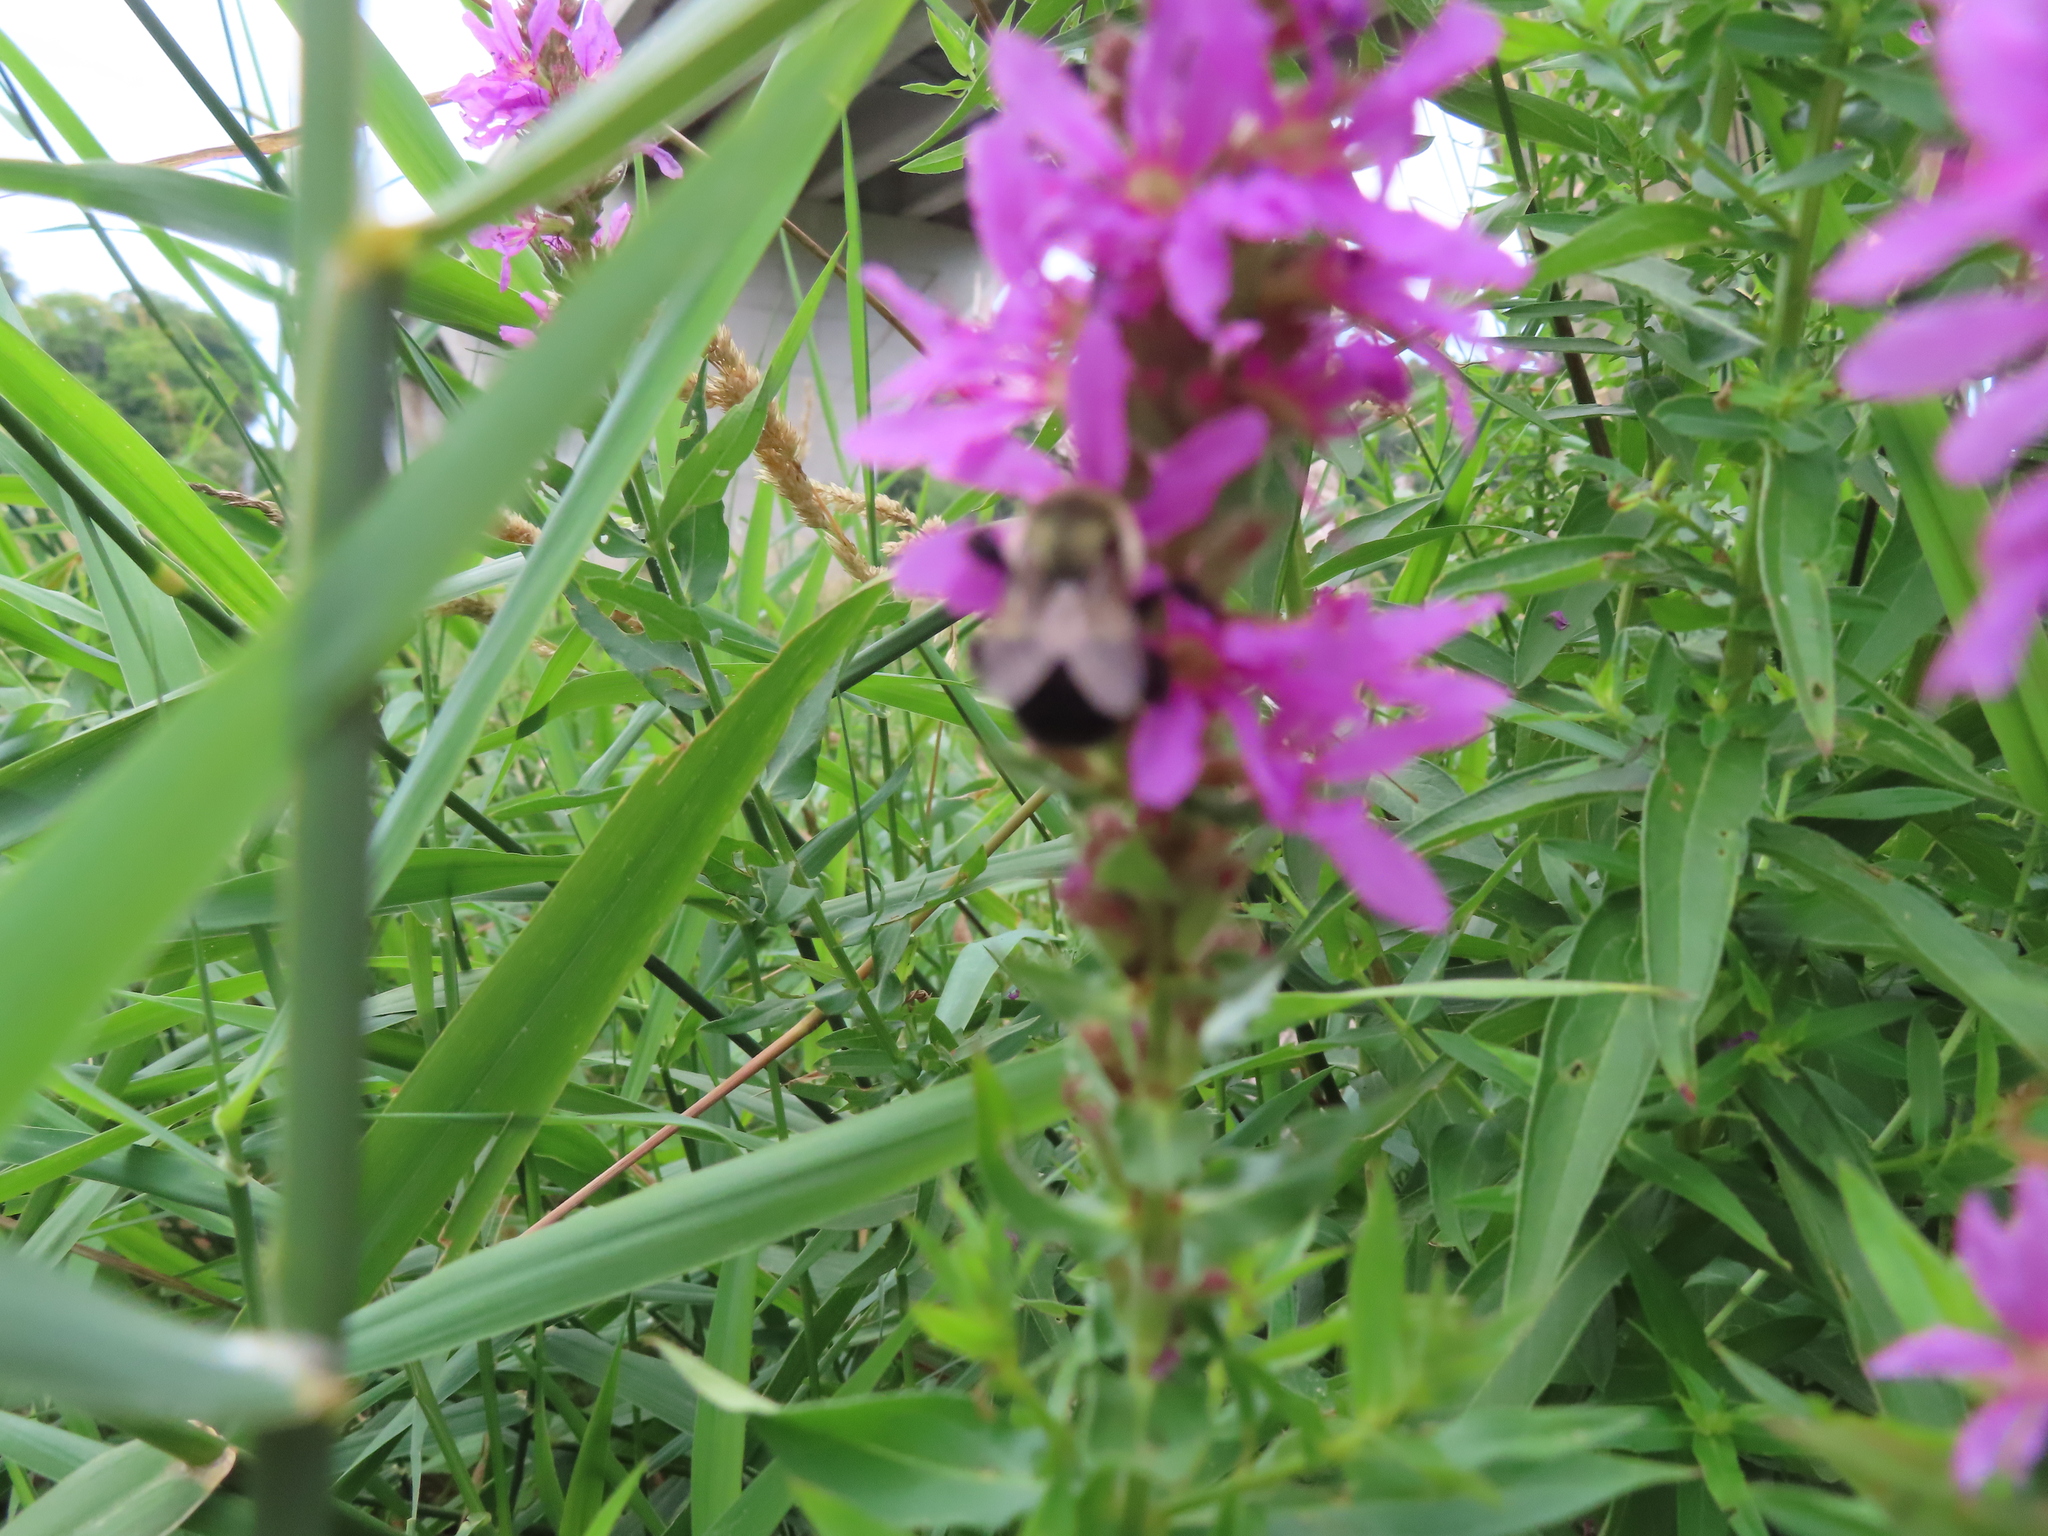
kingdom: Animalia
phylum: Arthropoda
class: Insecta
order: Hymenoptera
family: Apidae
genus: Bombus
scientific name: Bombus impatiens
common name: Common eastern bumble bee
